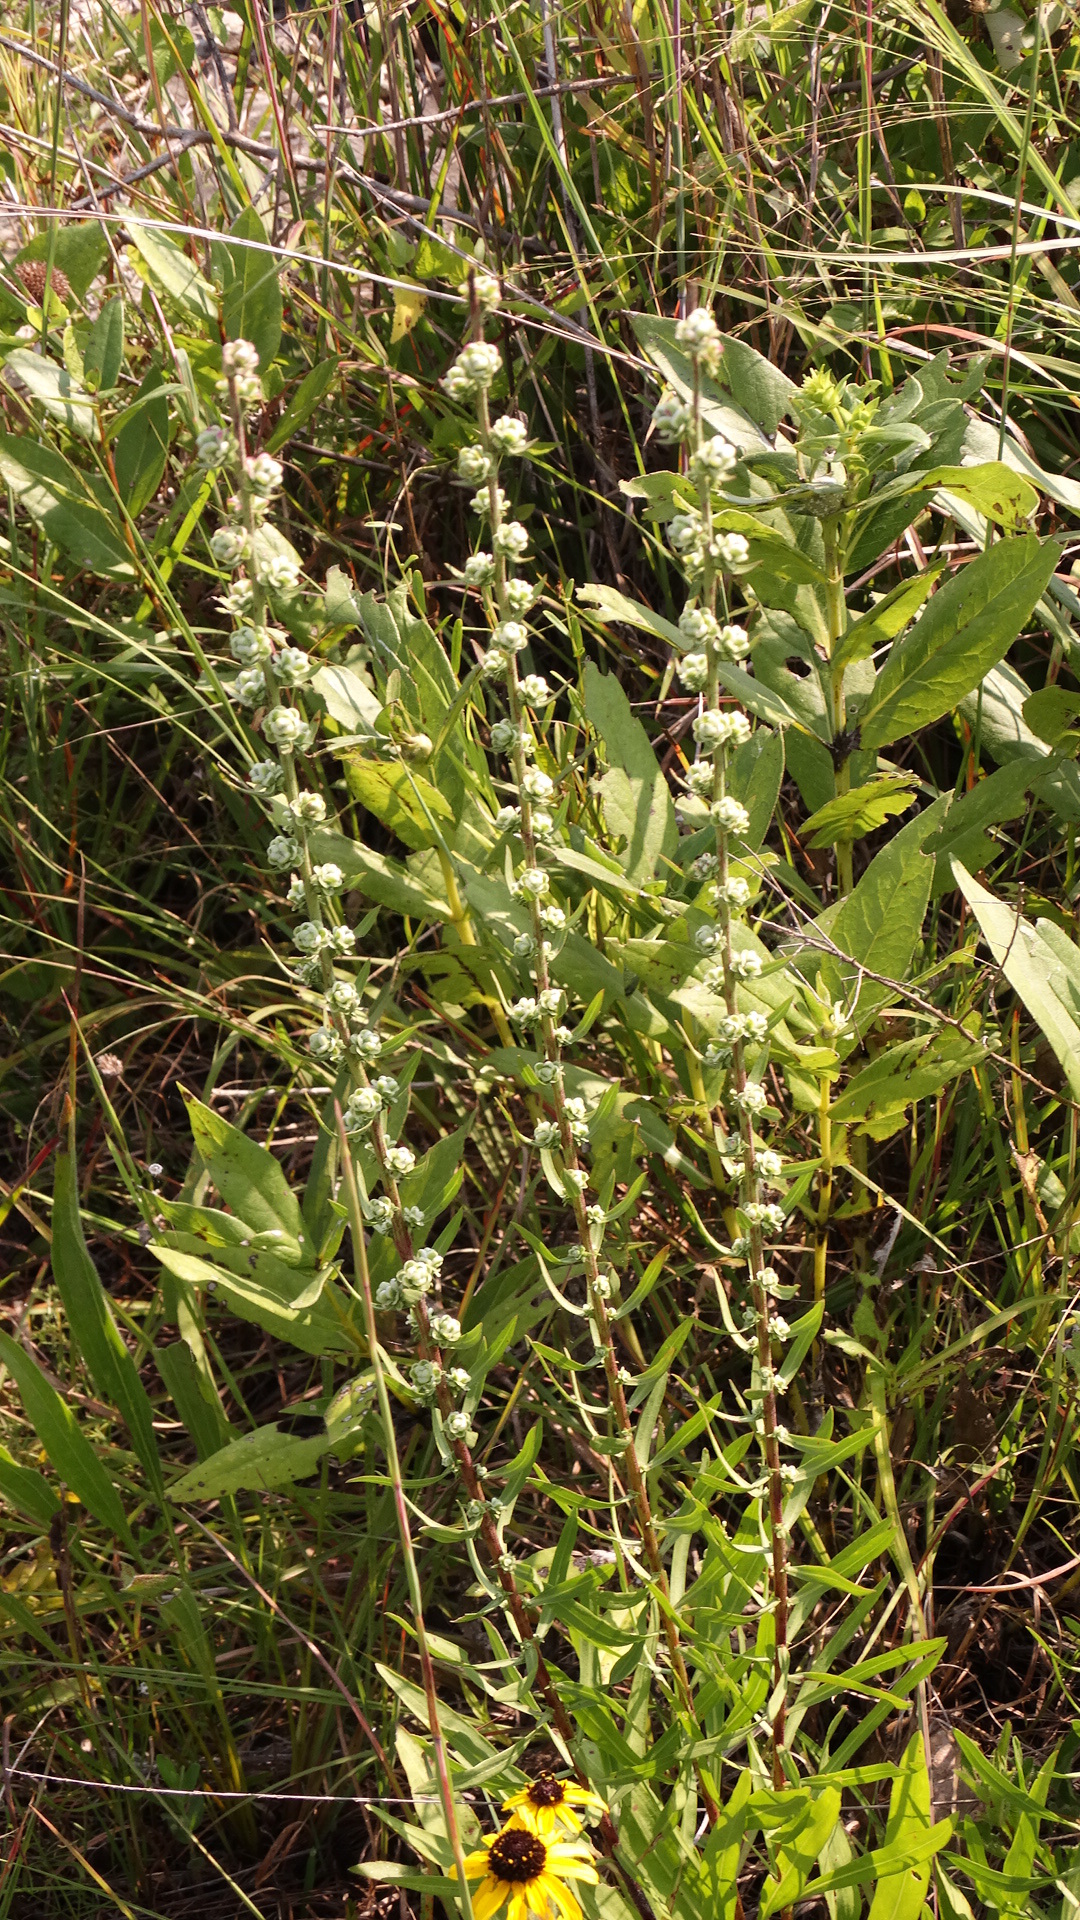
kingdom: Plantae
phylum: Tracheophyta
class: Magnoliopsida
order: Asterales
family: Asteraceae
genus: Liatris
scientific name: Liatris aspera
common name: Lacerate blazing-star
